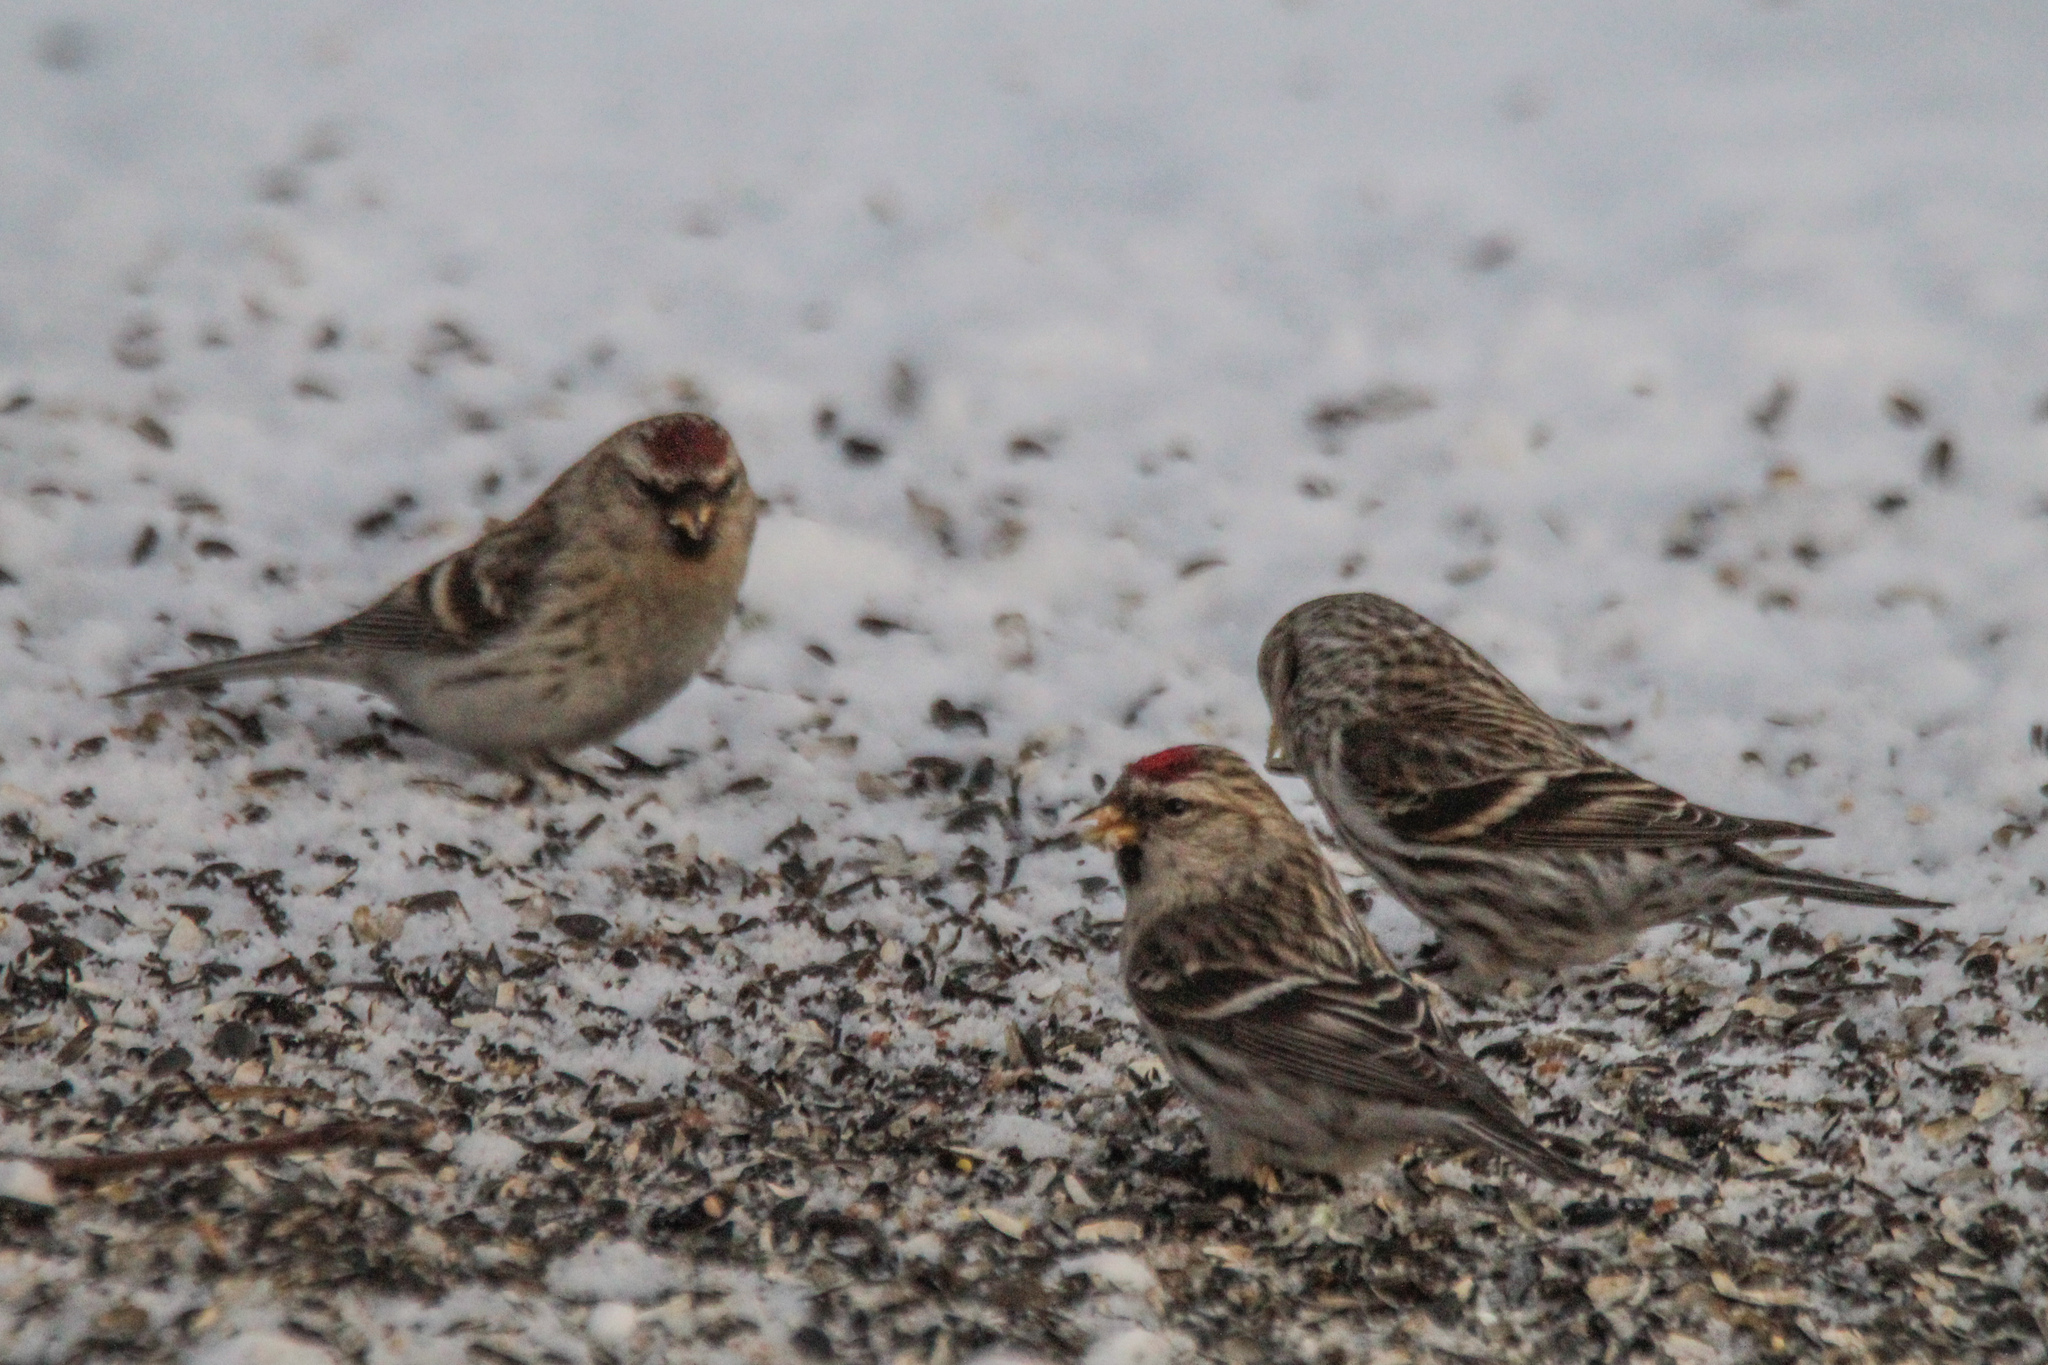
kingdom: Animalia
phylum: Chordata
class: Aves
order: Passeriformes
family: Fringillidae
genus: Acanthis
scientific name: Acanthis flammea
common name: Common redpoll
